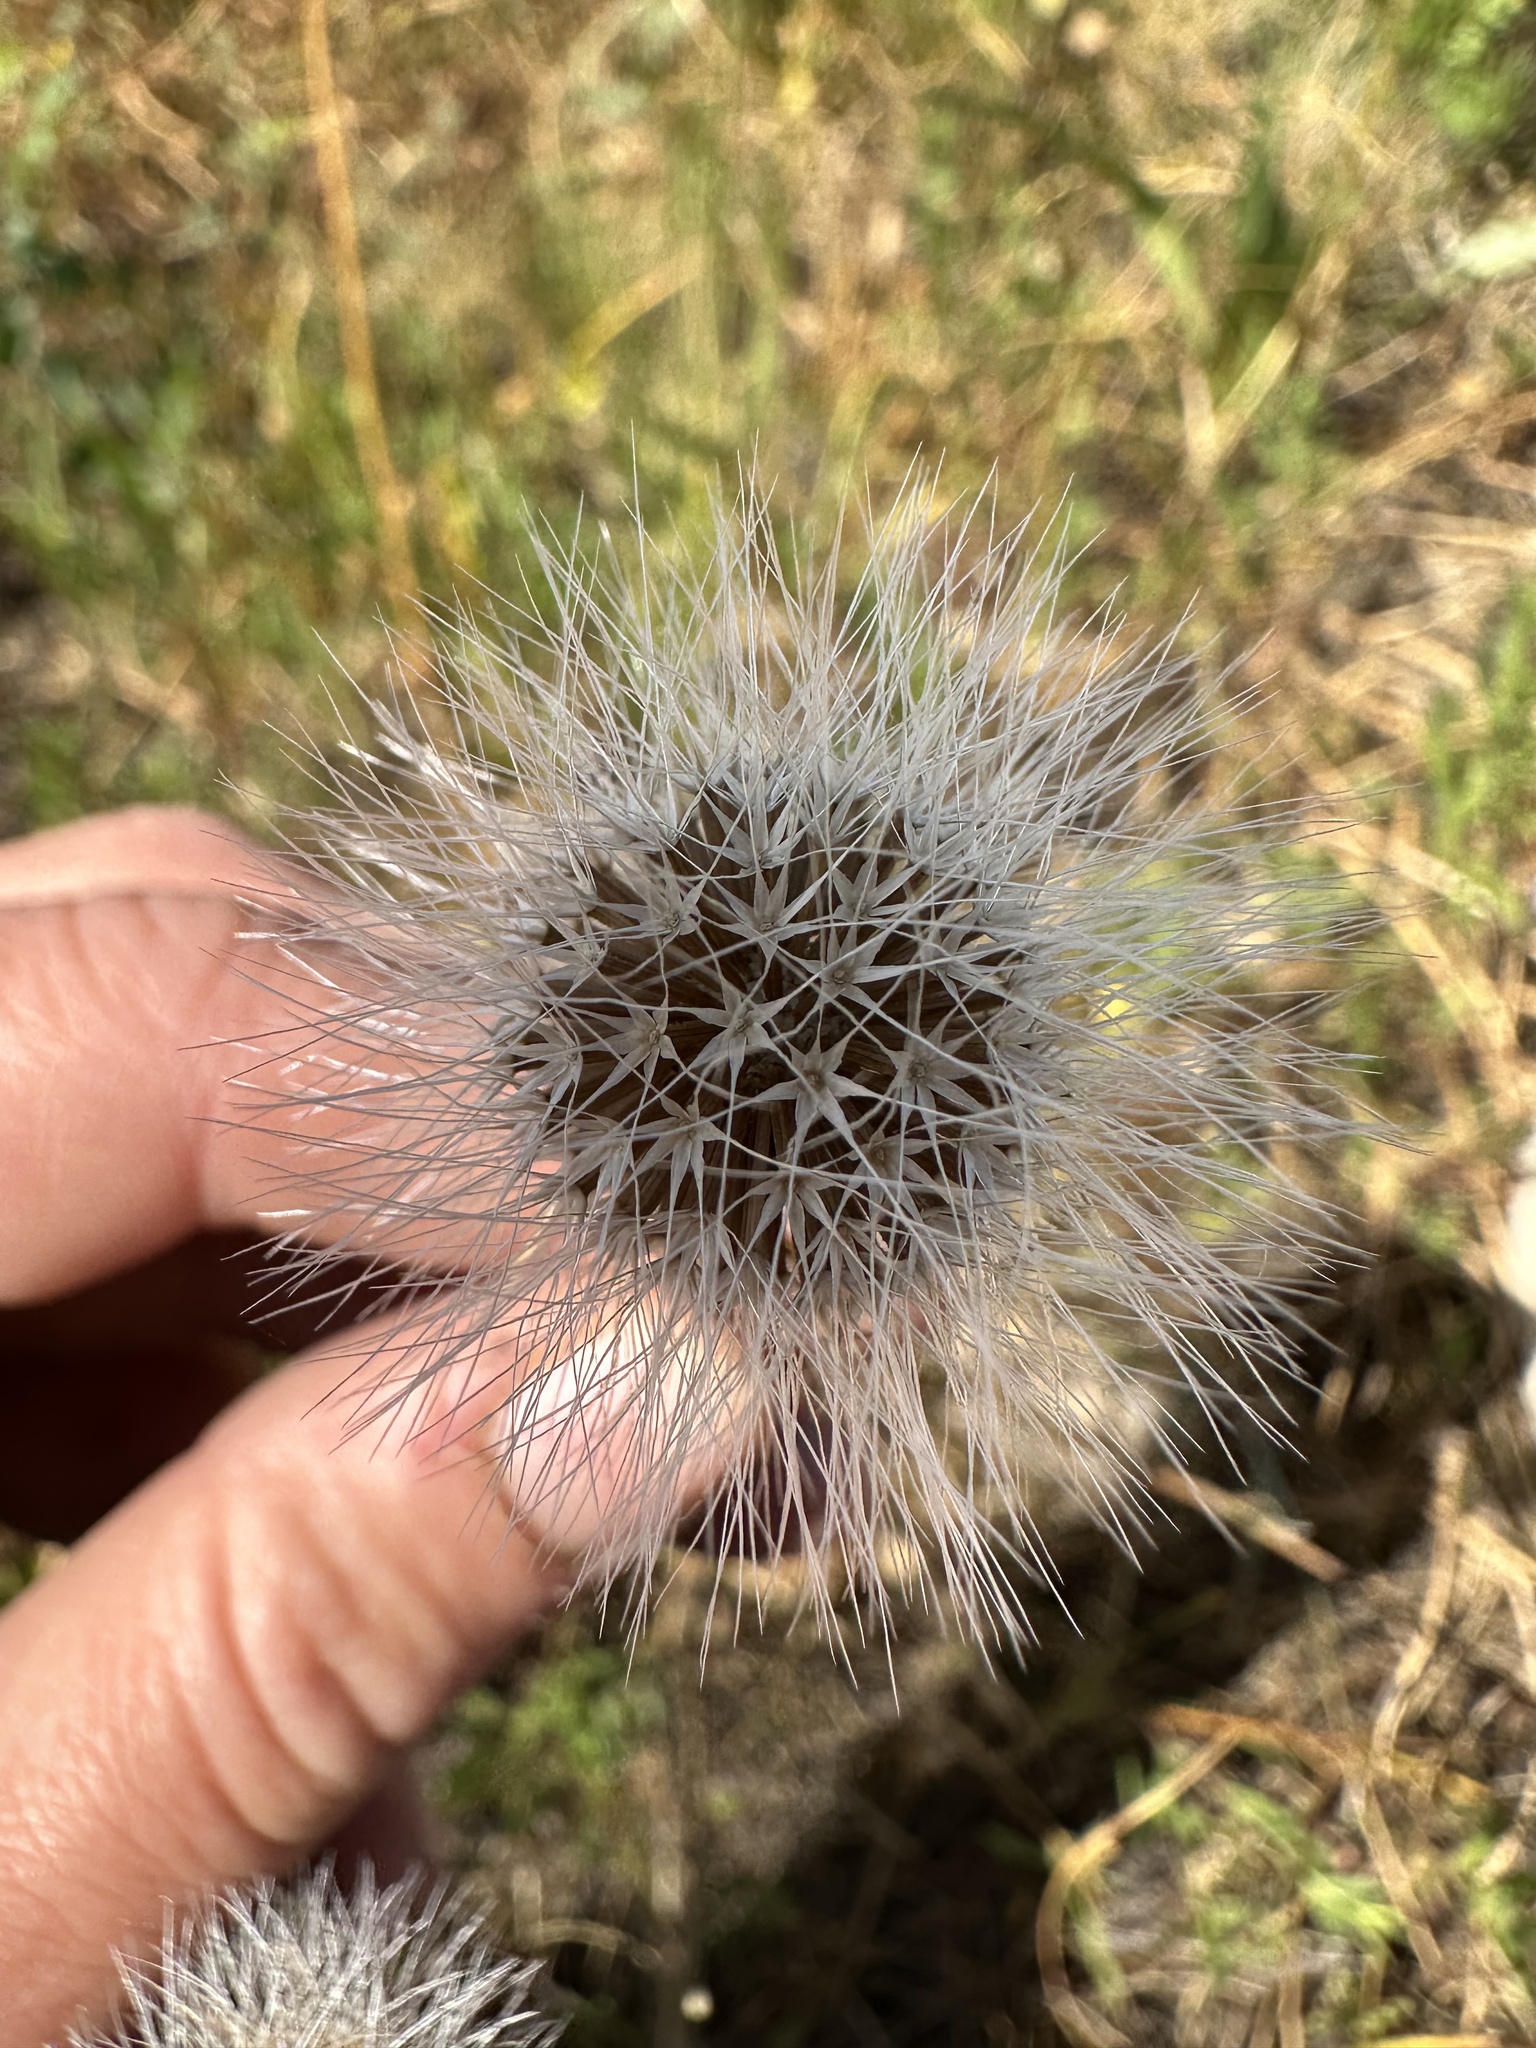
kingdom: Plantae
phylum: Tracheophyta
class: Magnoliopsida
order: Asterales
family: Asteraceae
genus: Microseris
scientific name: Microseris laciniata
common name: Cut-leaf microseris
